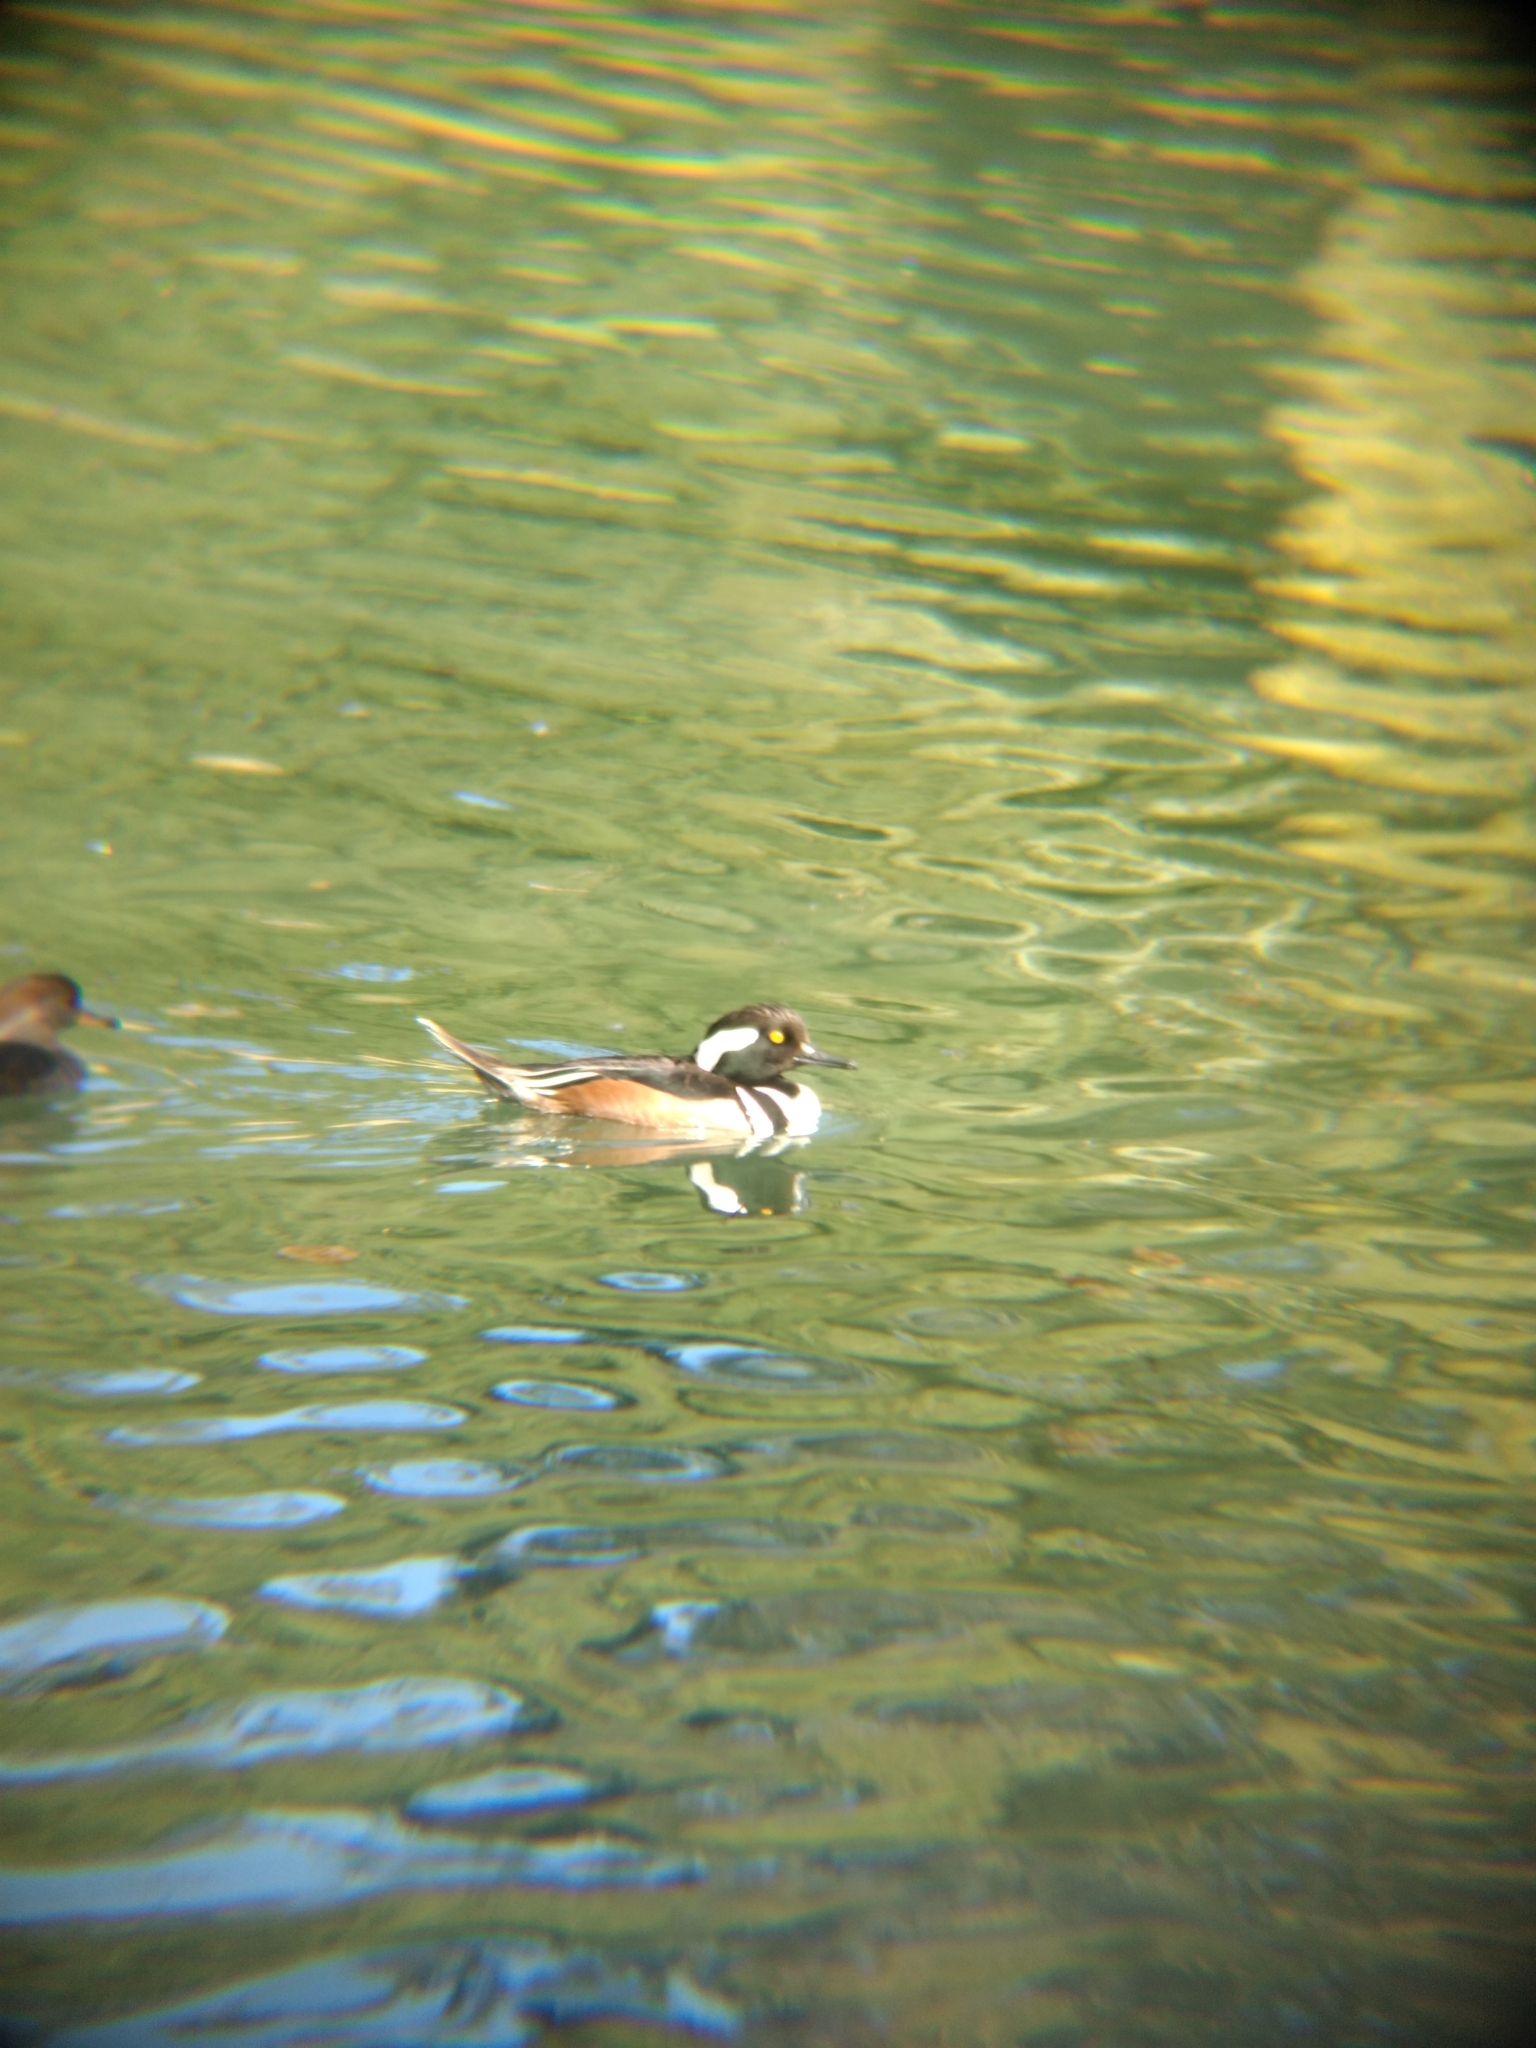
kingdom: Animalia
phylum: Chordata
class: Aves
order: Anseriformes
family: Anatidae
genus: Lophodytes
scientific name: Lophodytes cucullatus
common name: Hooded merganser
